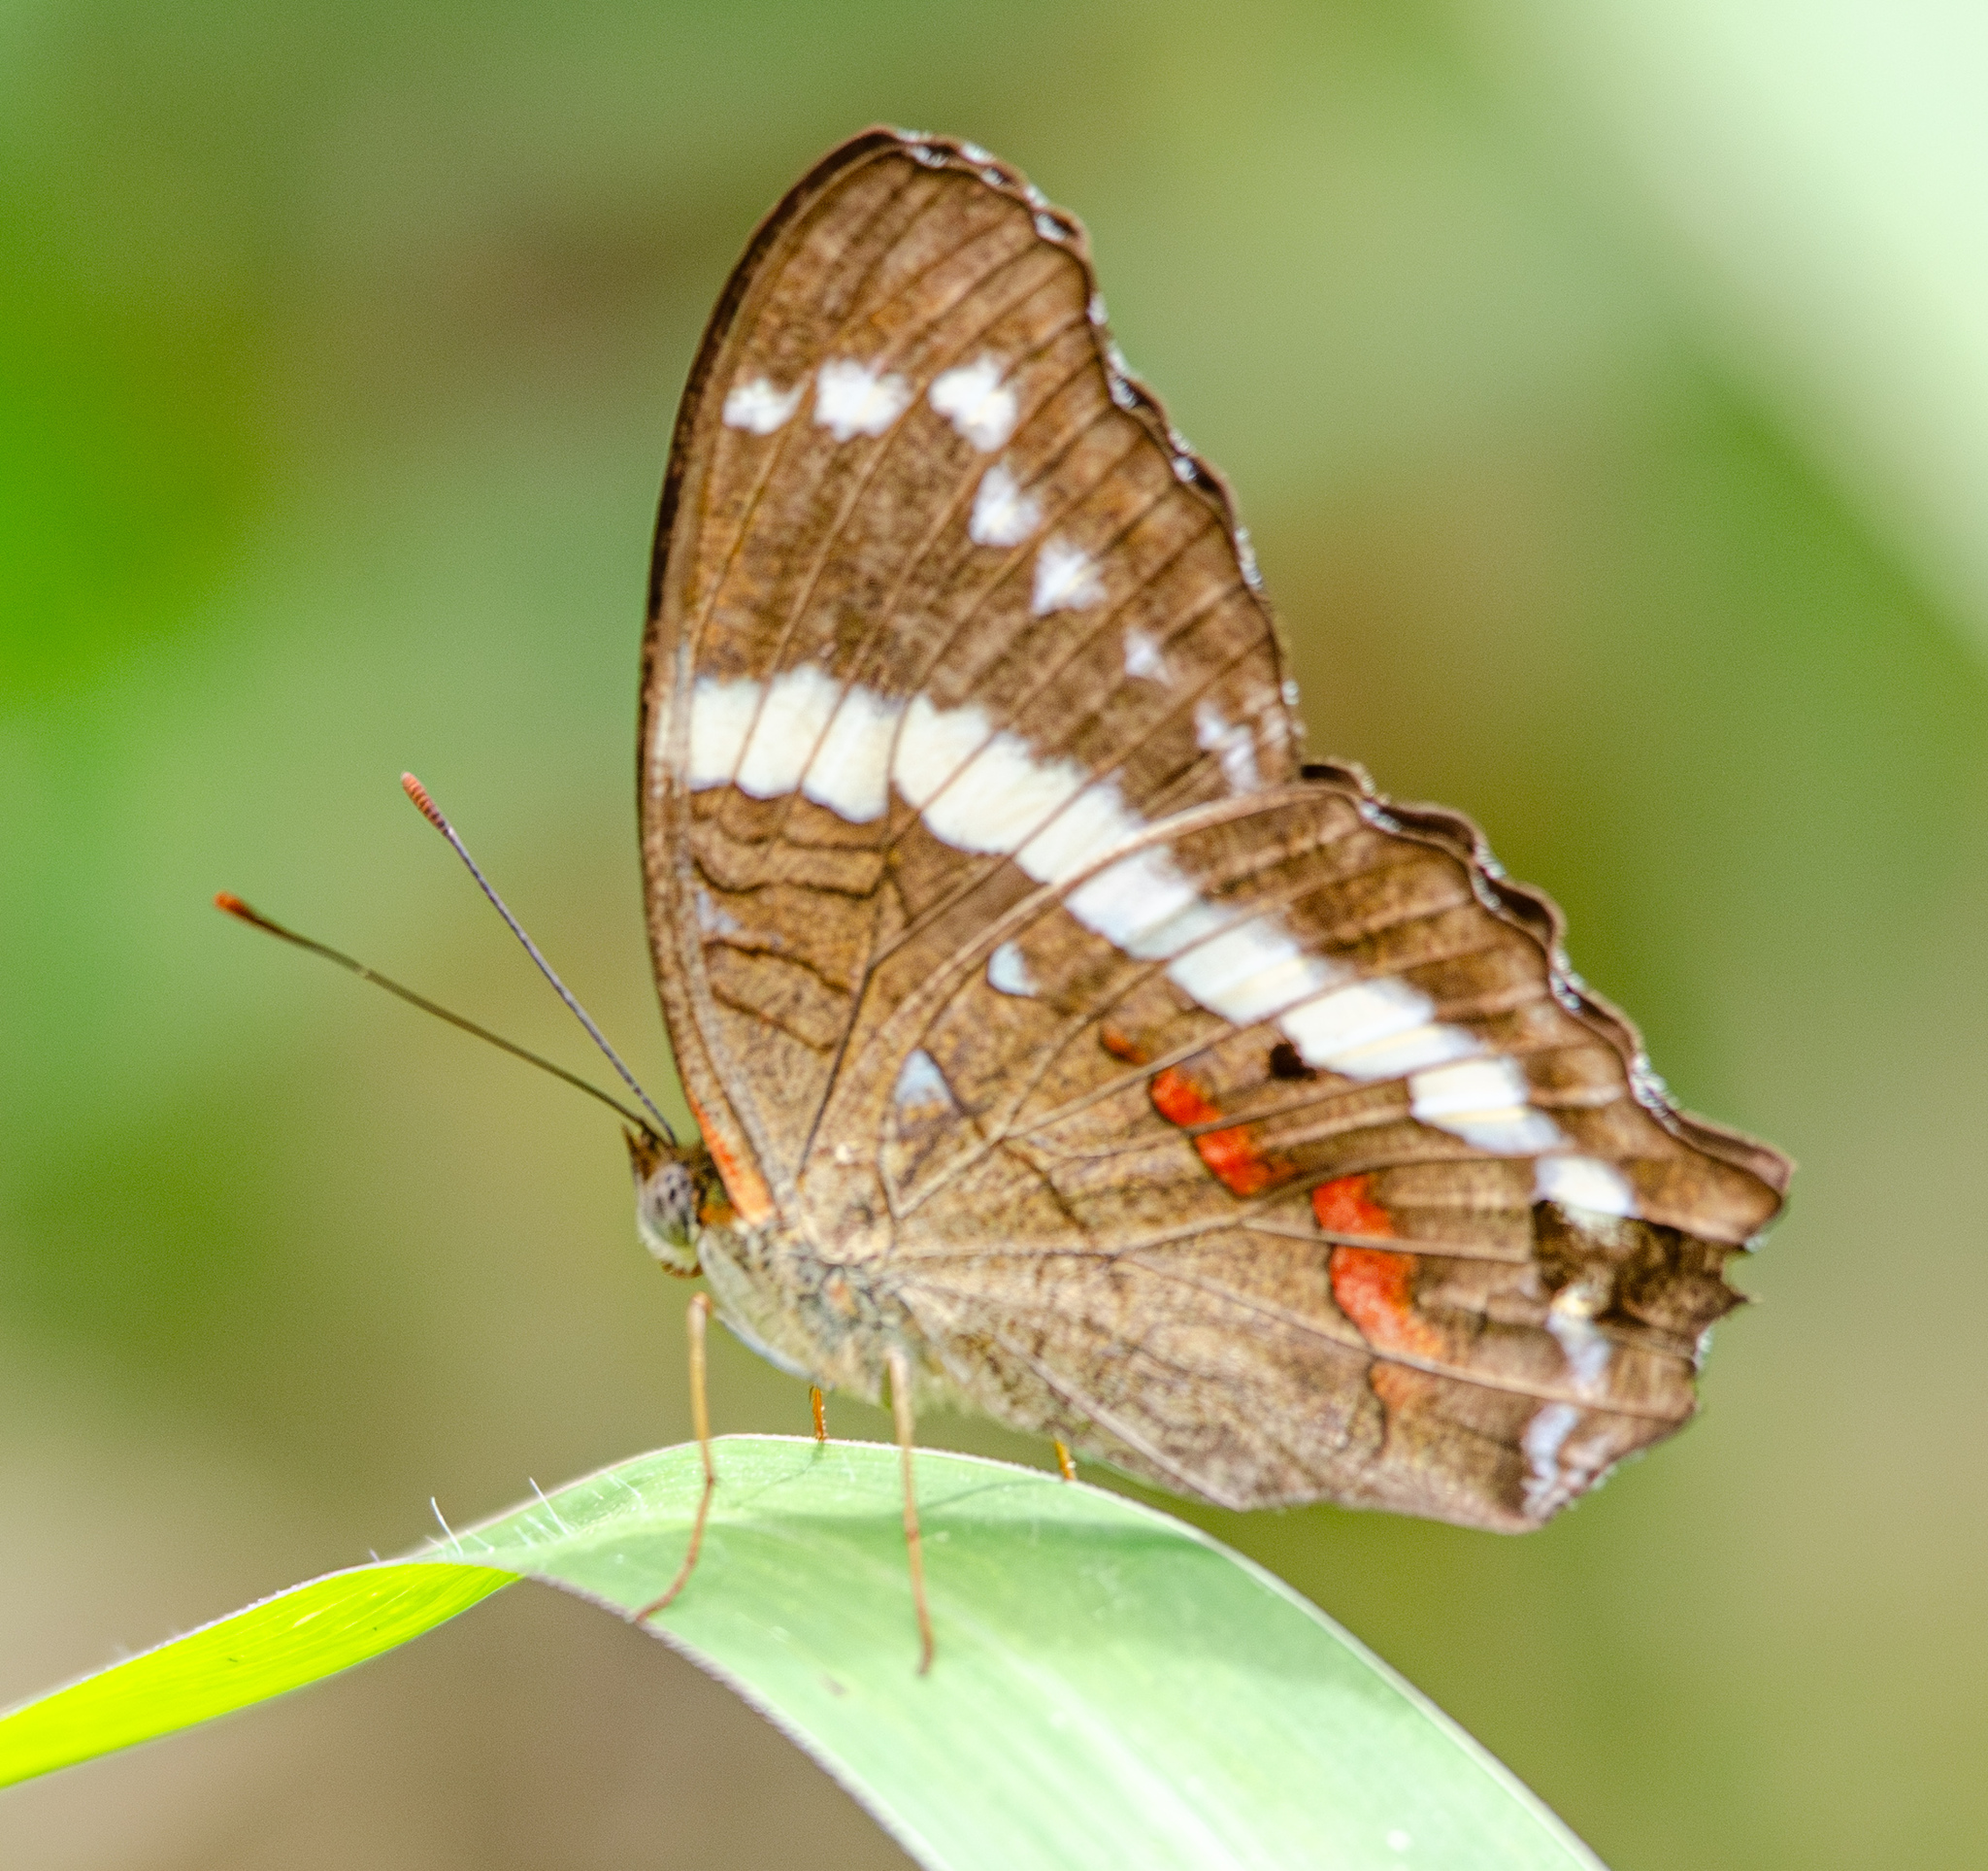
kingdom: Animalia
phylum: Arthropoda
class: Insecta
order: Lepidoptera
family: Nymphalidae
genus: Anartia
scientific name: Anartia fatima
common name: Banded peacock
